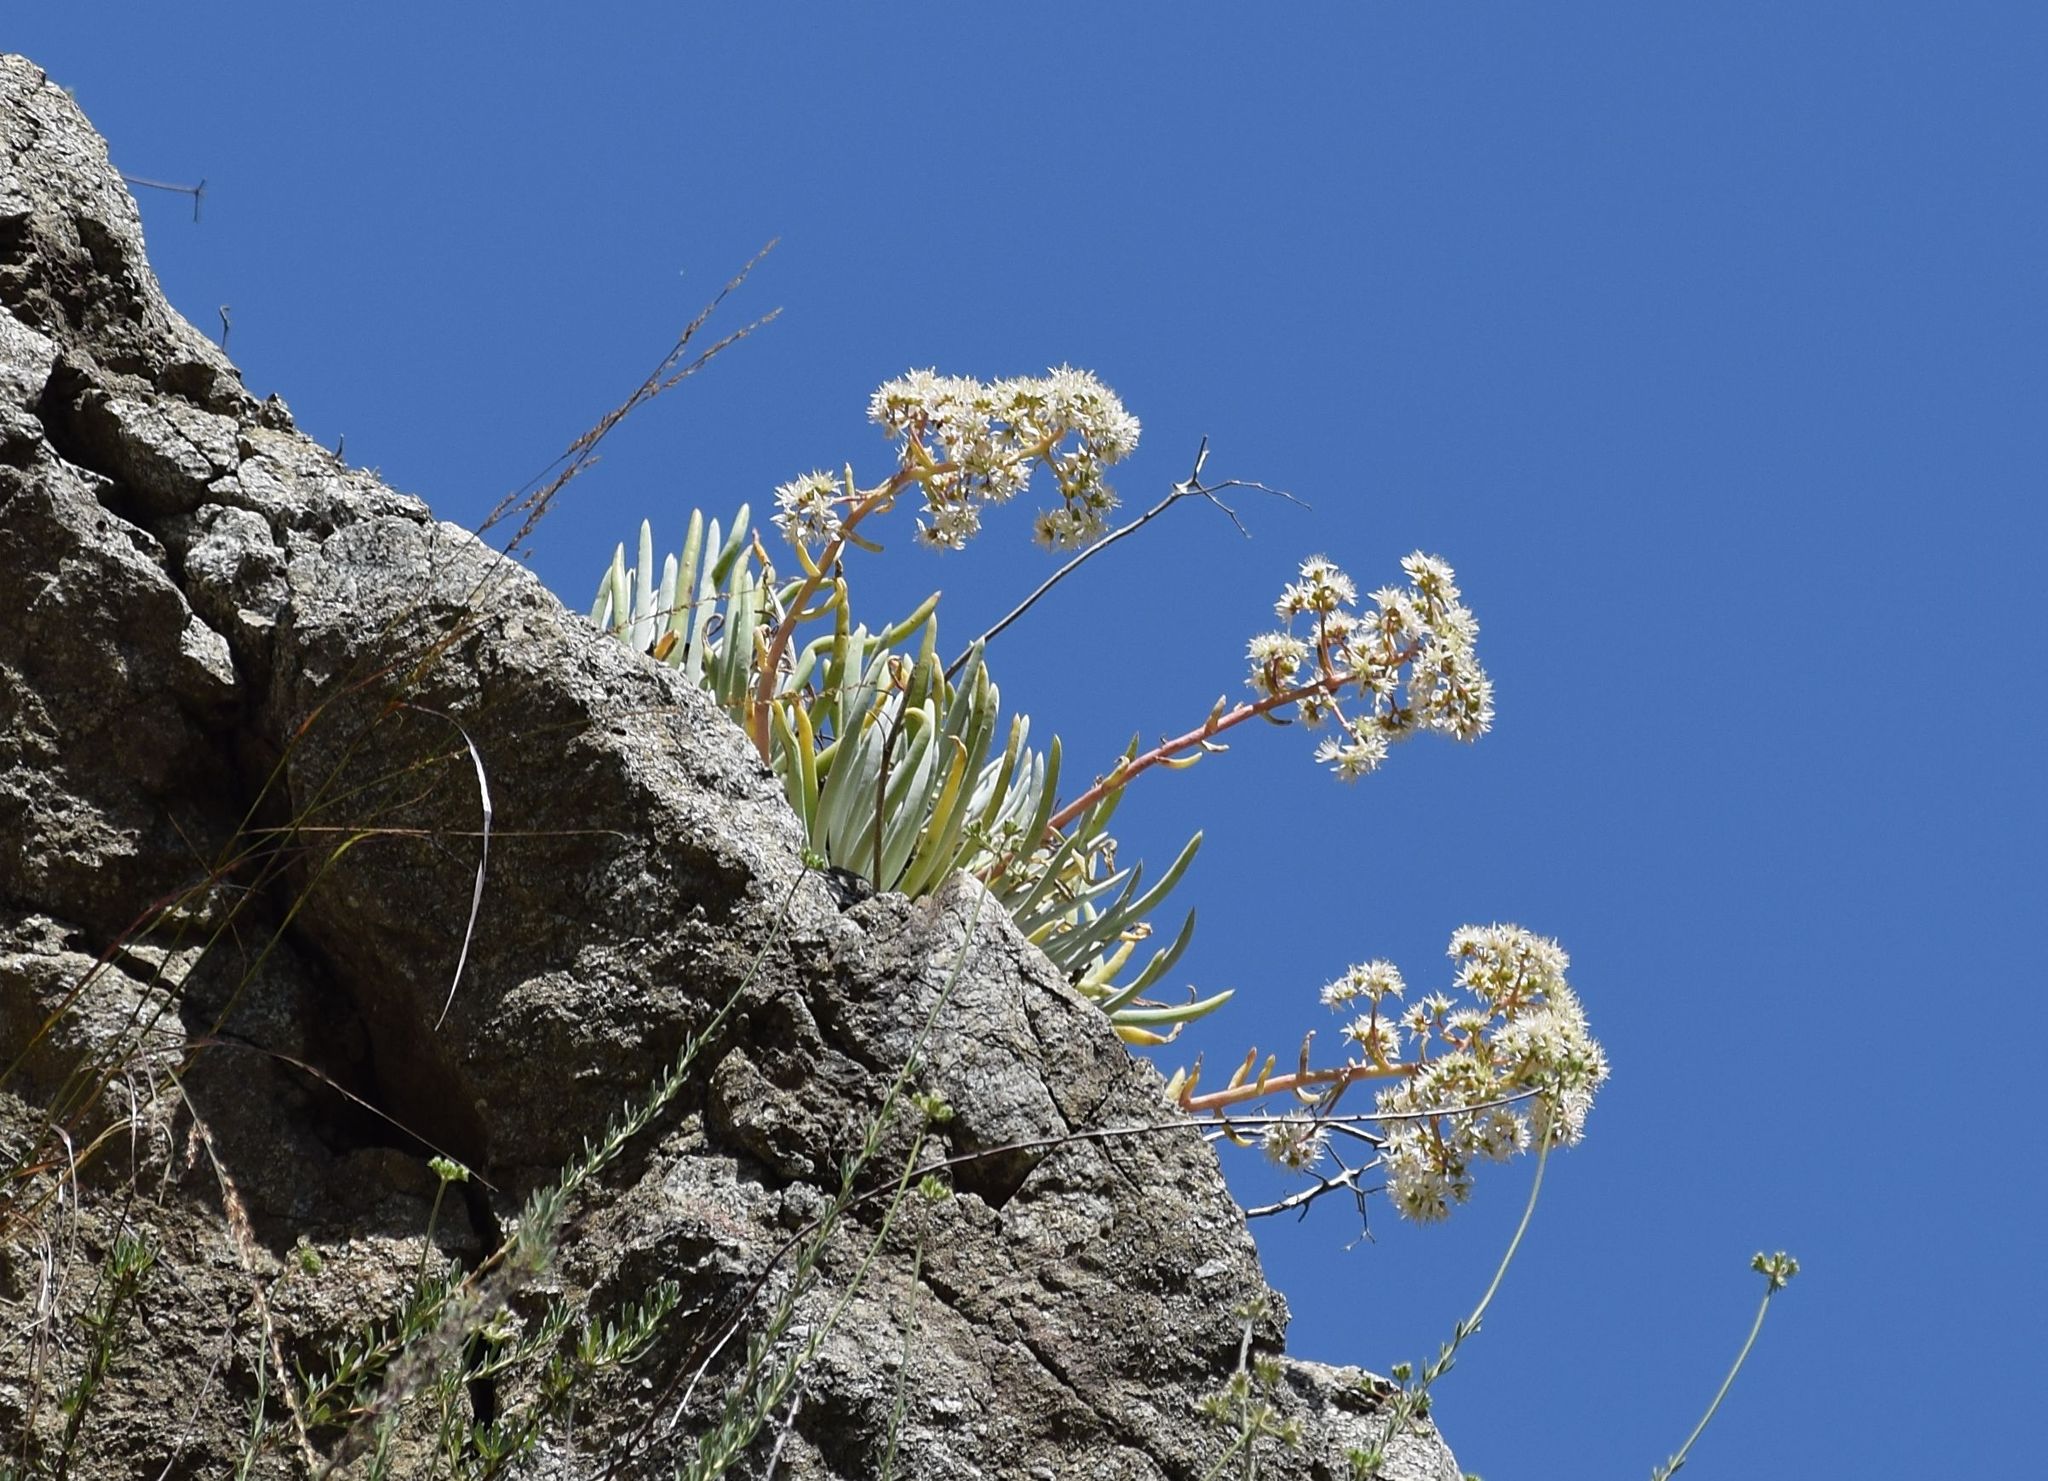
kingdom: Plantae
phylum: Tracheophyta
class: Magnoliopsida
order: Saxifragales
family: Crassulaceae
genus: Dudleya
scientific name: Dudleya densiflora
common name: San gabriel mountains dudleya
